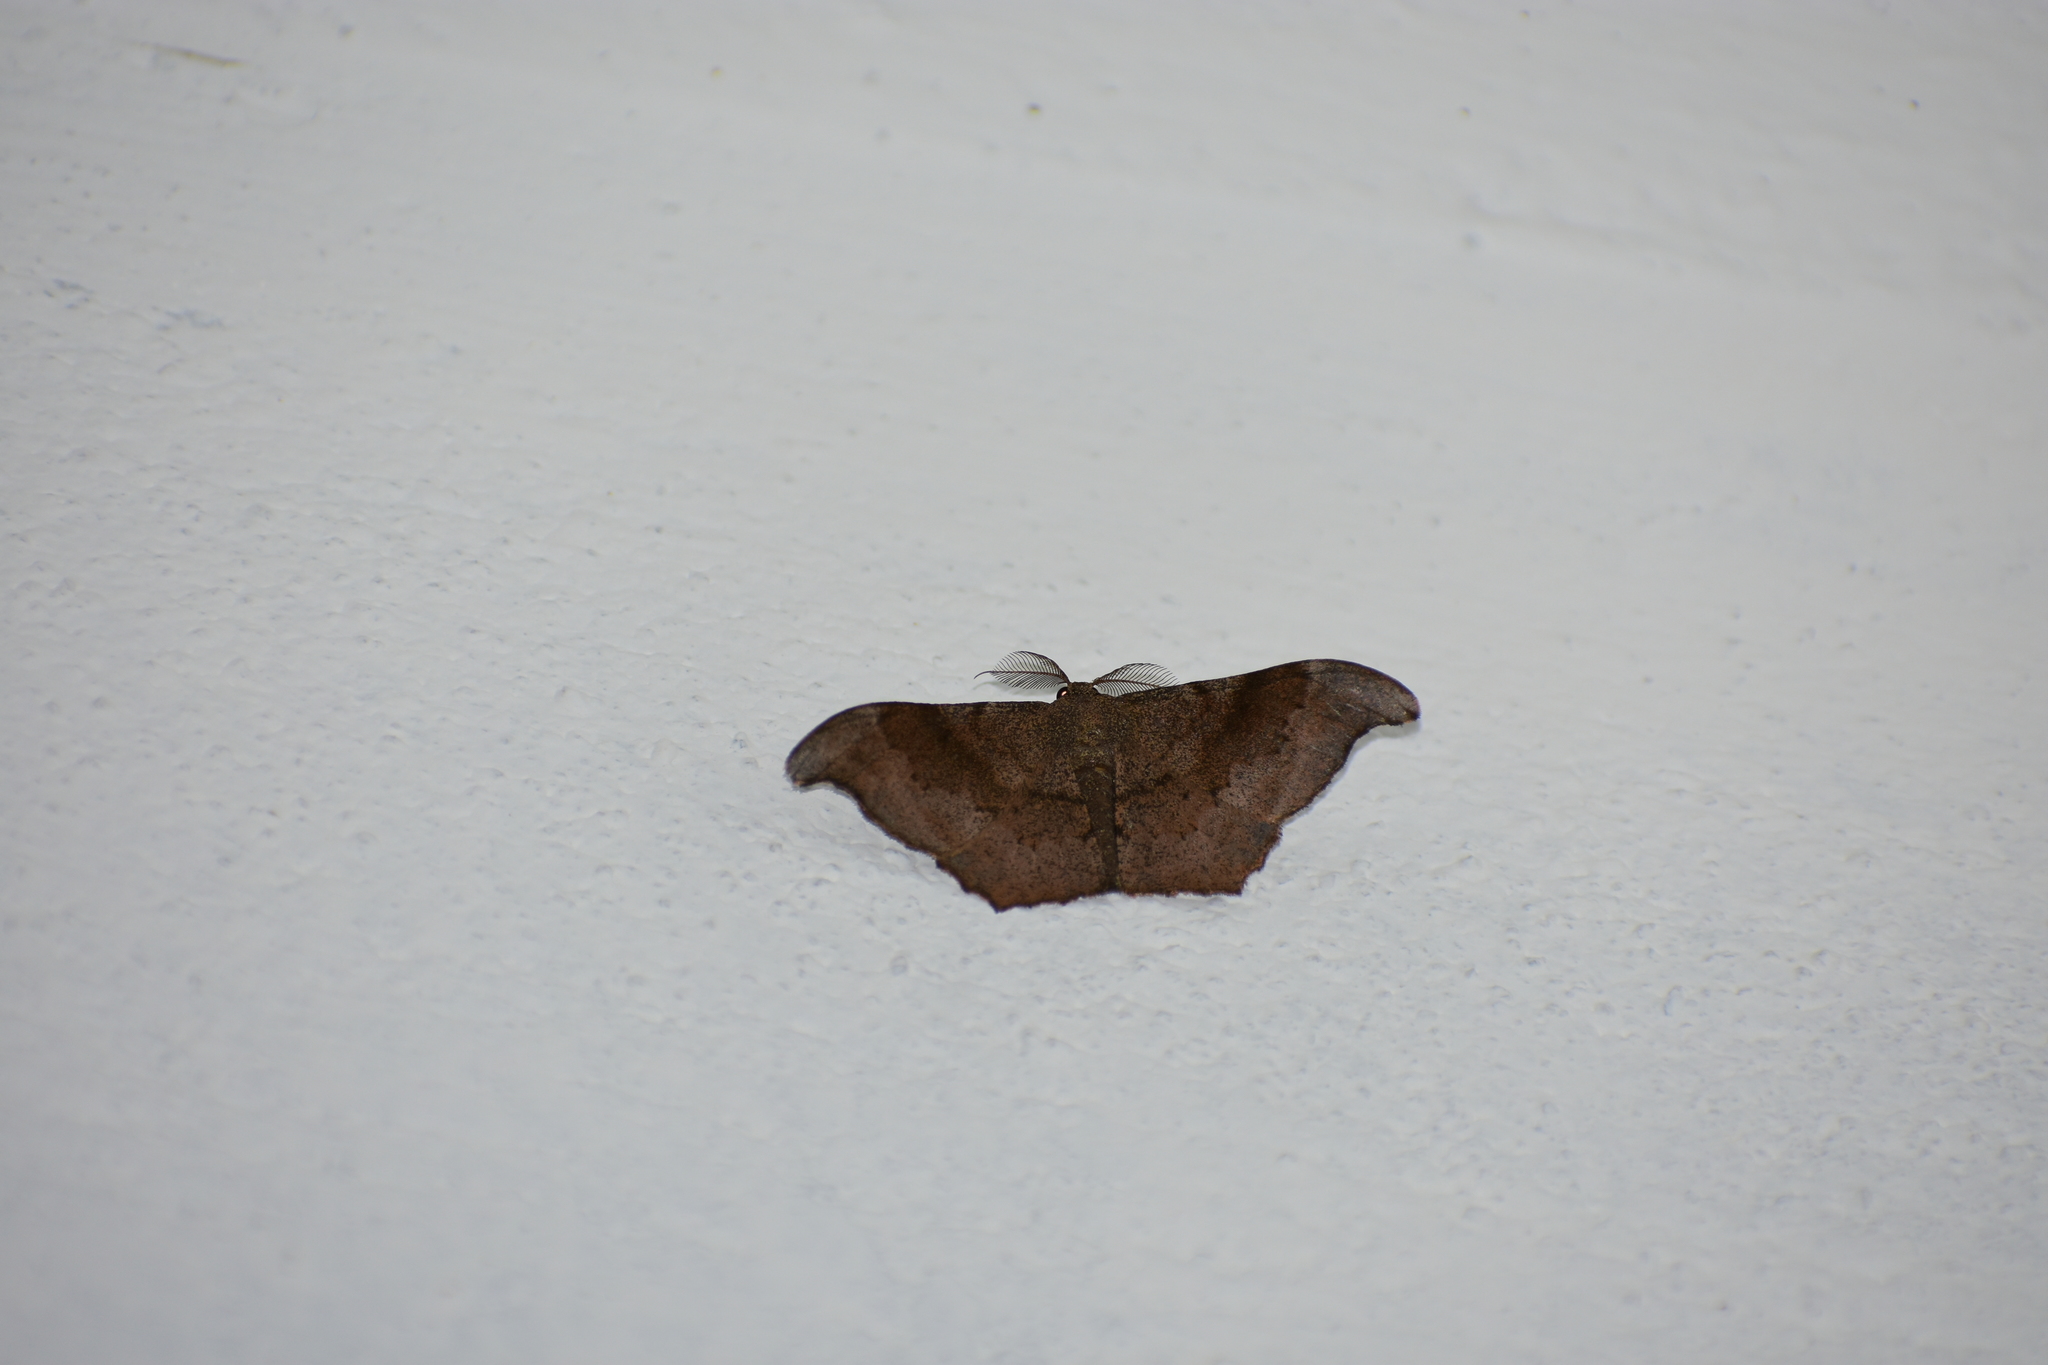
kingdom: Animalia
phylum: Arthropoda
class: Insecta
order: Lepidoptera
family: Geometridae
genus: Hyposidra
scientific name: Hyposidra talaca
